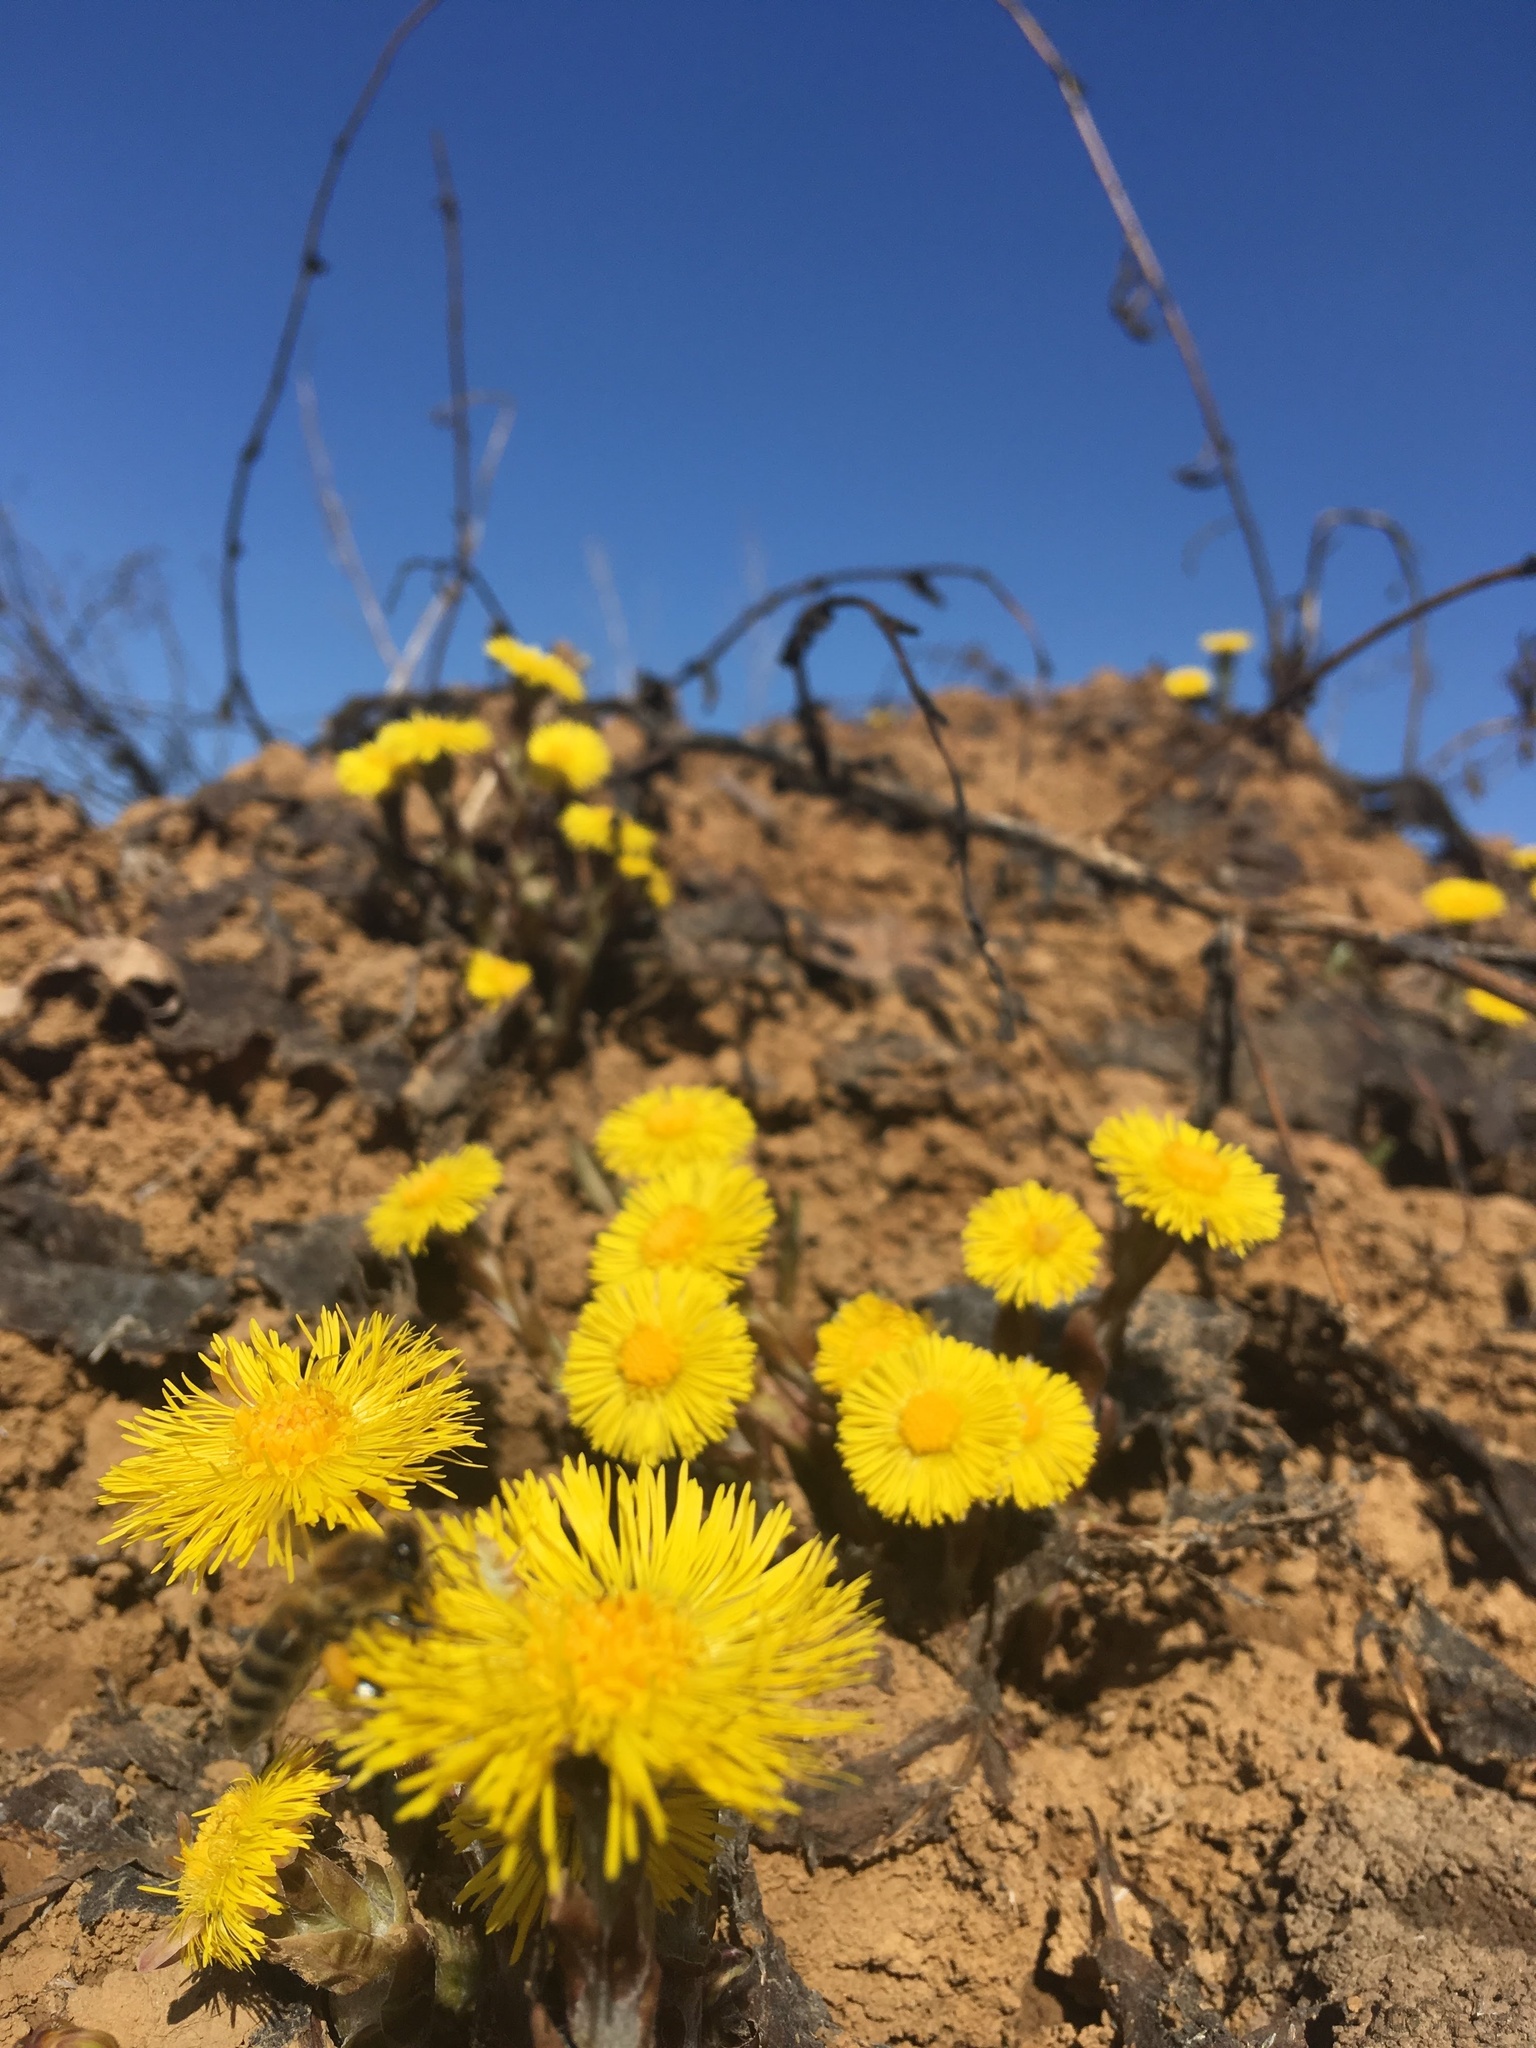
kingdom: Plantae
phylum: Tracheophyta
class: Magnoliopsida
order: Asterales
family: Asteraceae
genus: Tussilago
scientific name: Tussilago farfara
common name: Coltsfoot
